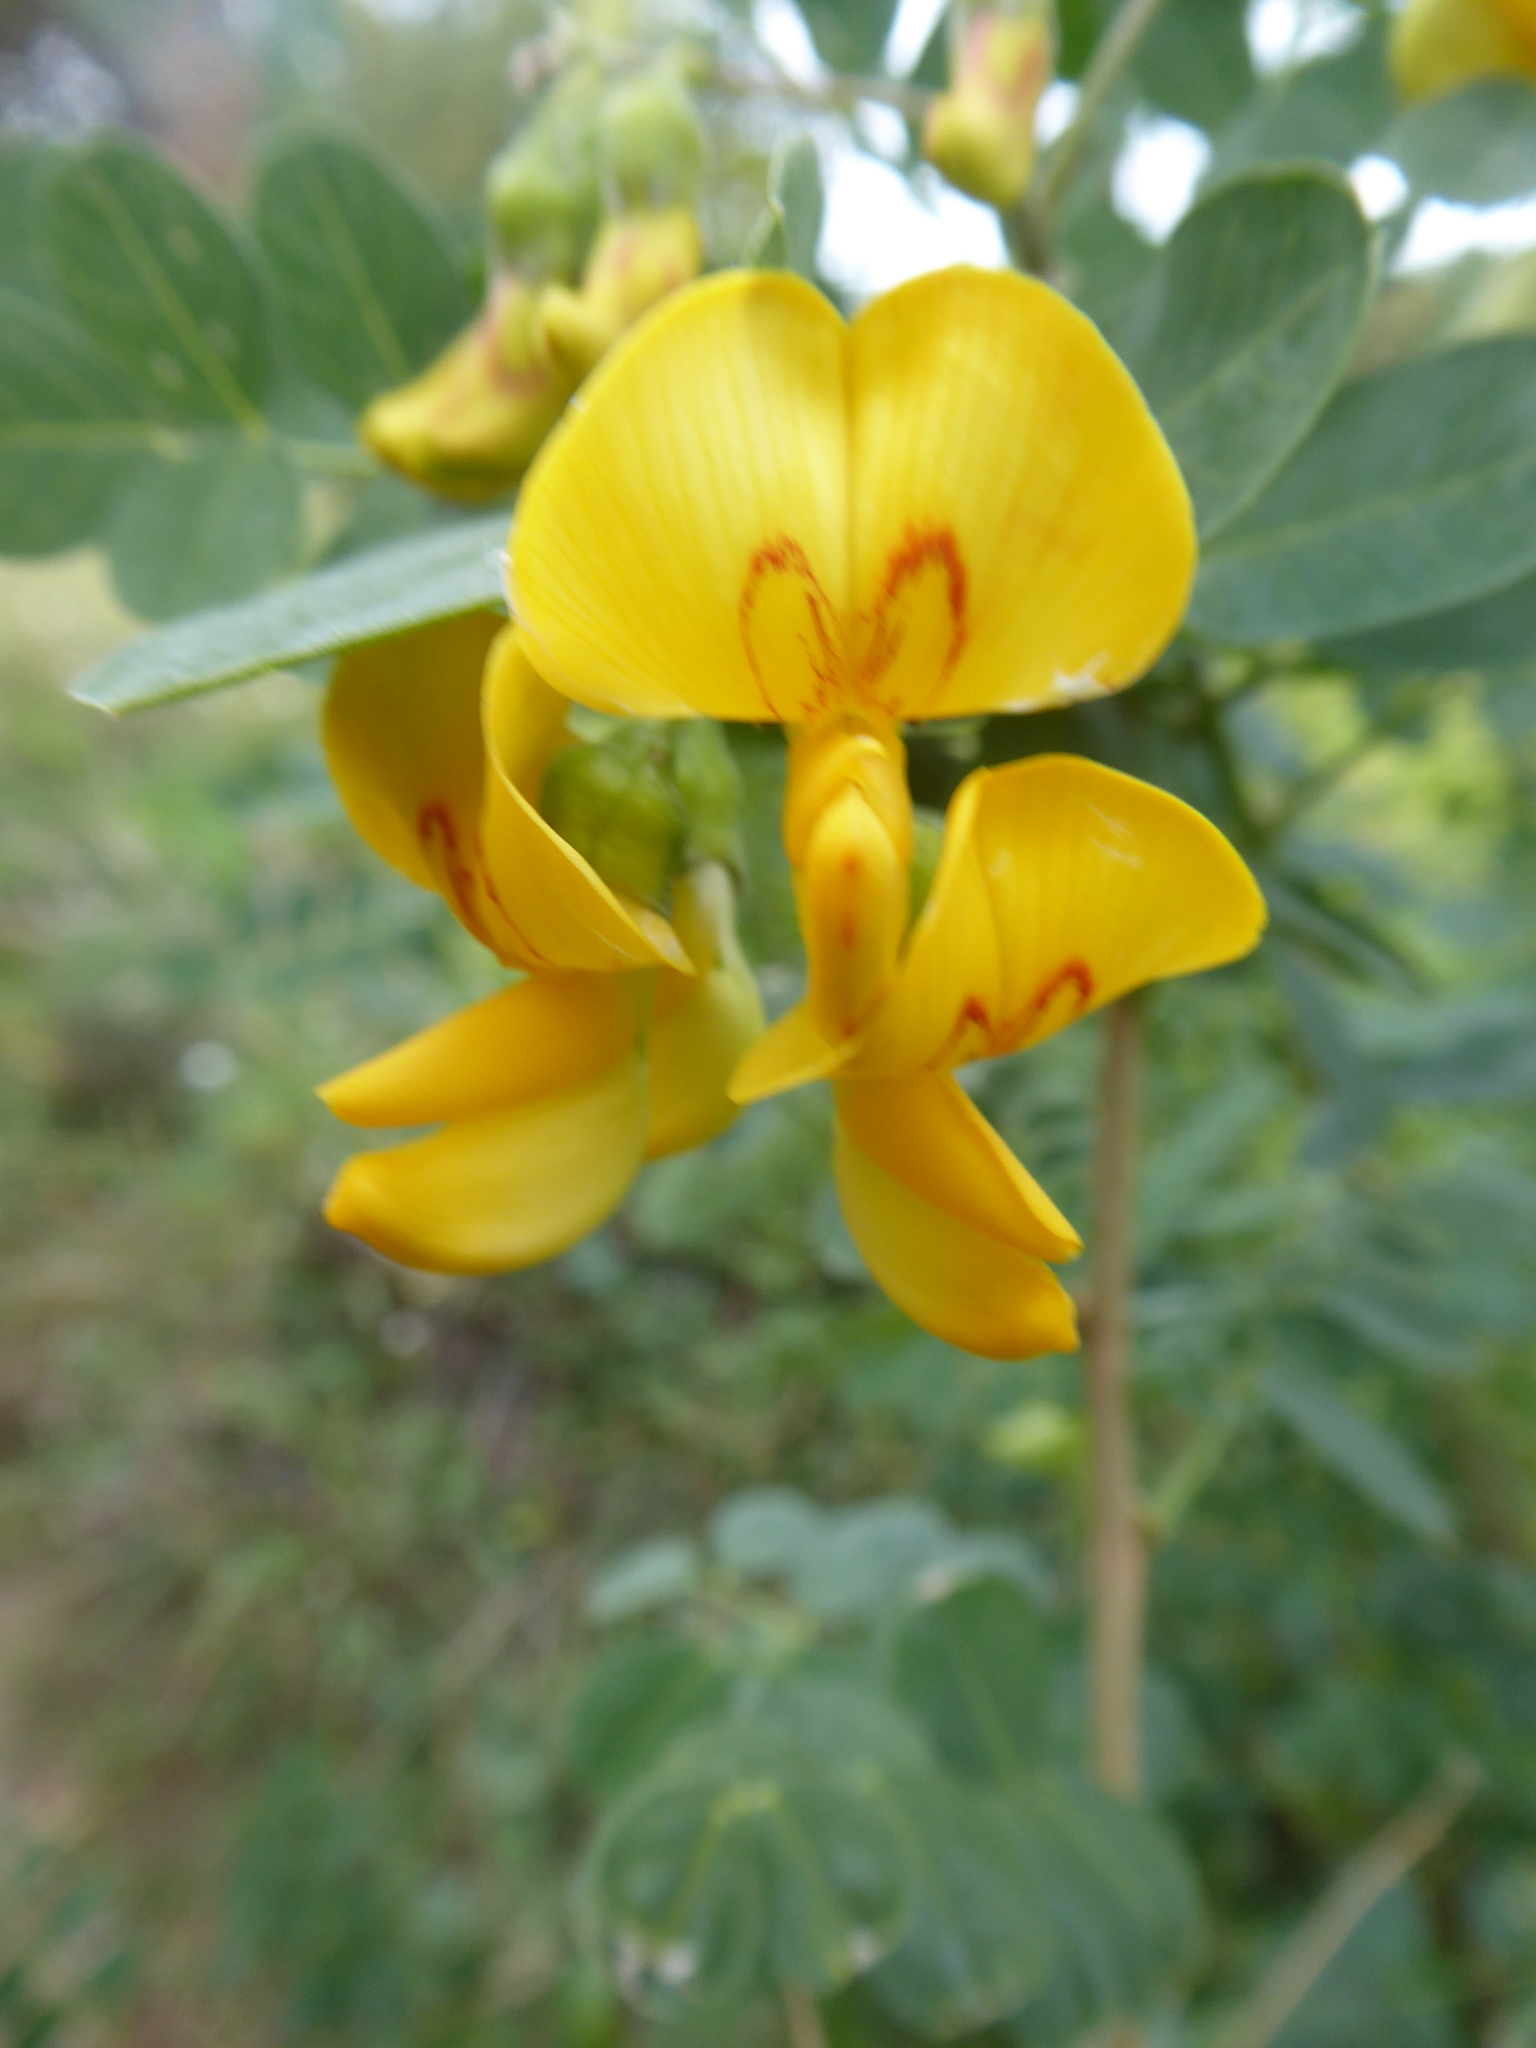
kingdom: Plantae
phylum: Tracheophyta
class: Magnoliopsida
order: Fabales
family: Fabaceae
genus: Colutea
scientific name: Colutea arborescens
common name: Bladder-senna
